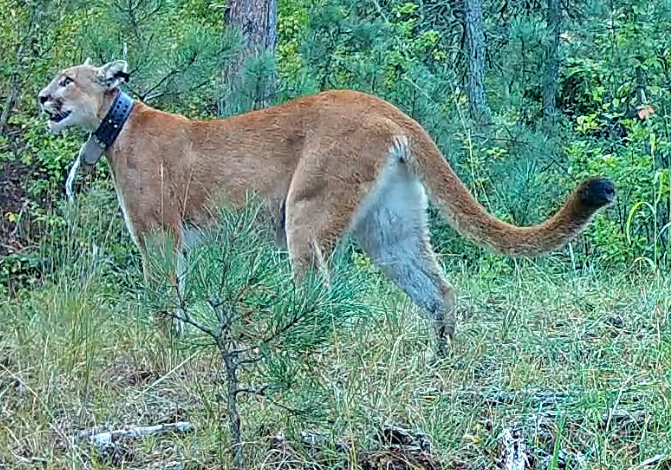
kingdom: Animalia
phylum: Chordata
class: Mammalia
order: Carnivora
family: Felidae
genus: Puma
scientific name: Puma concolor
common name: Puma
